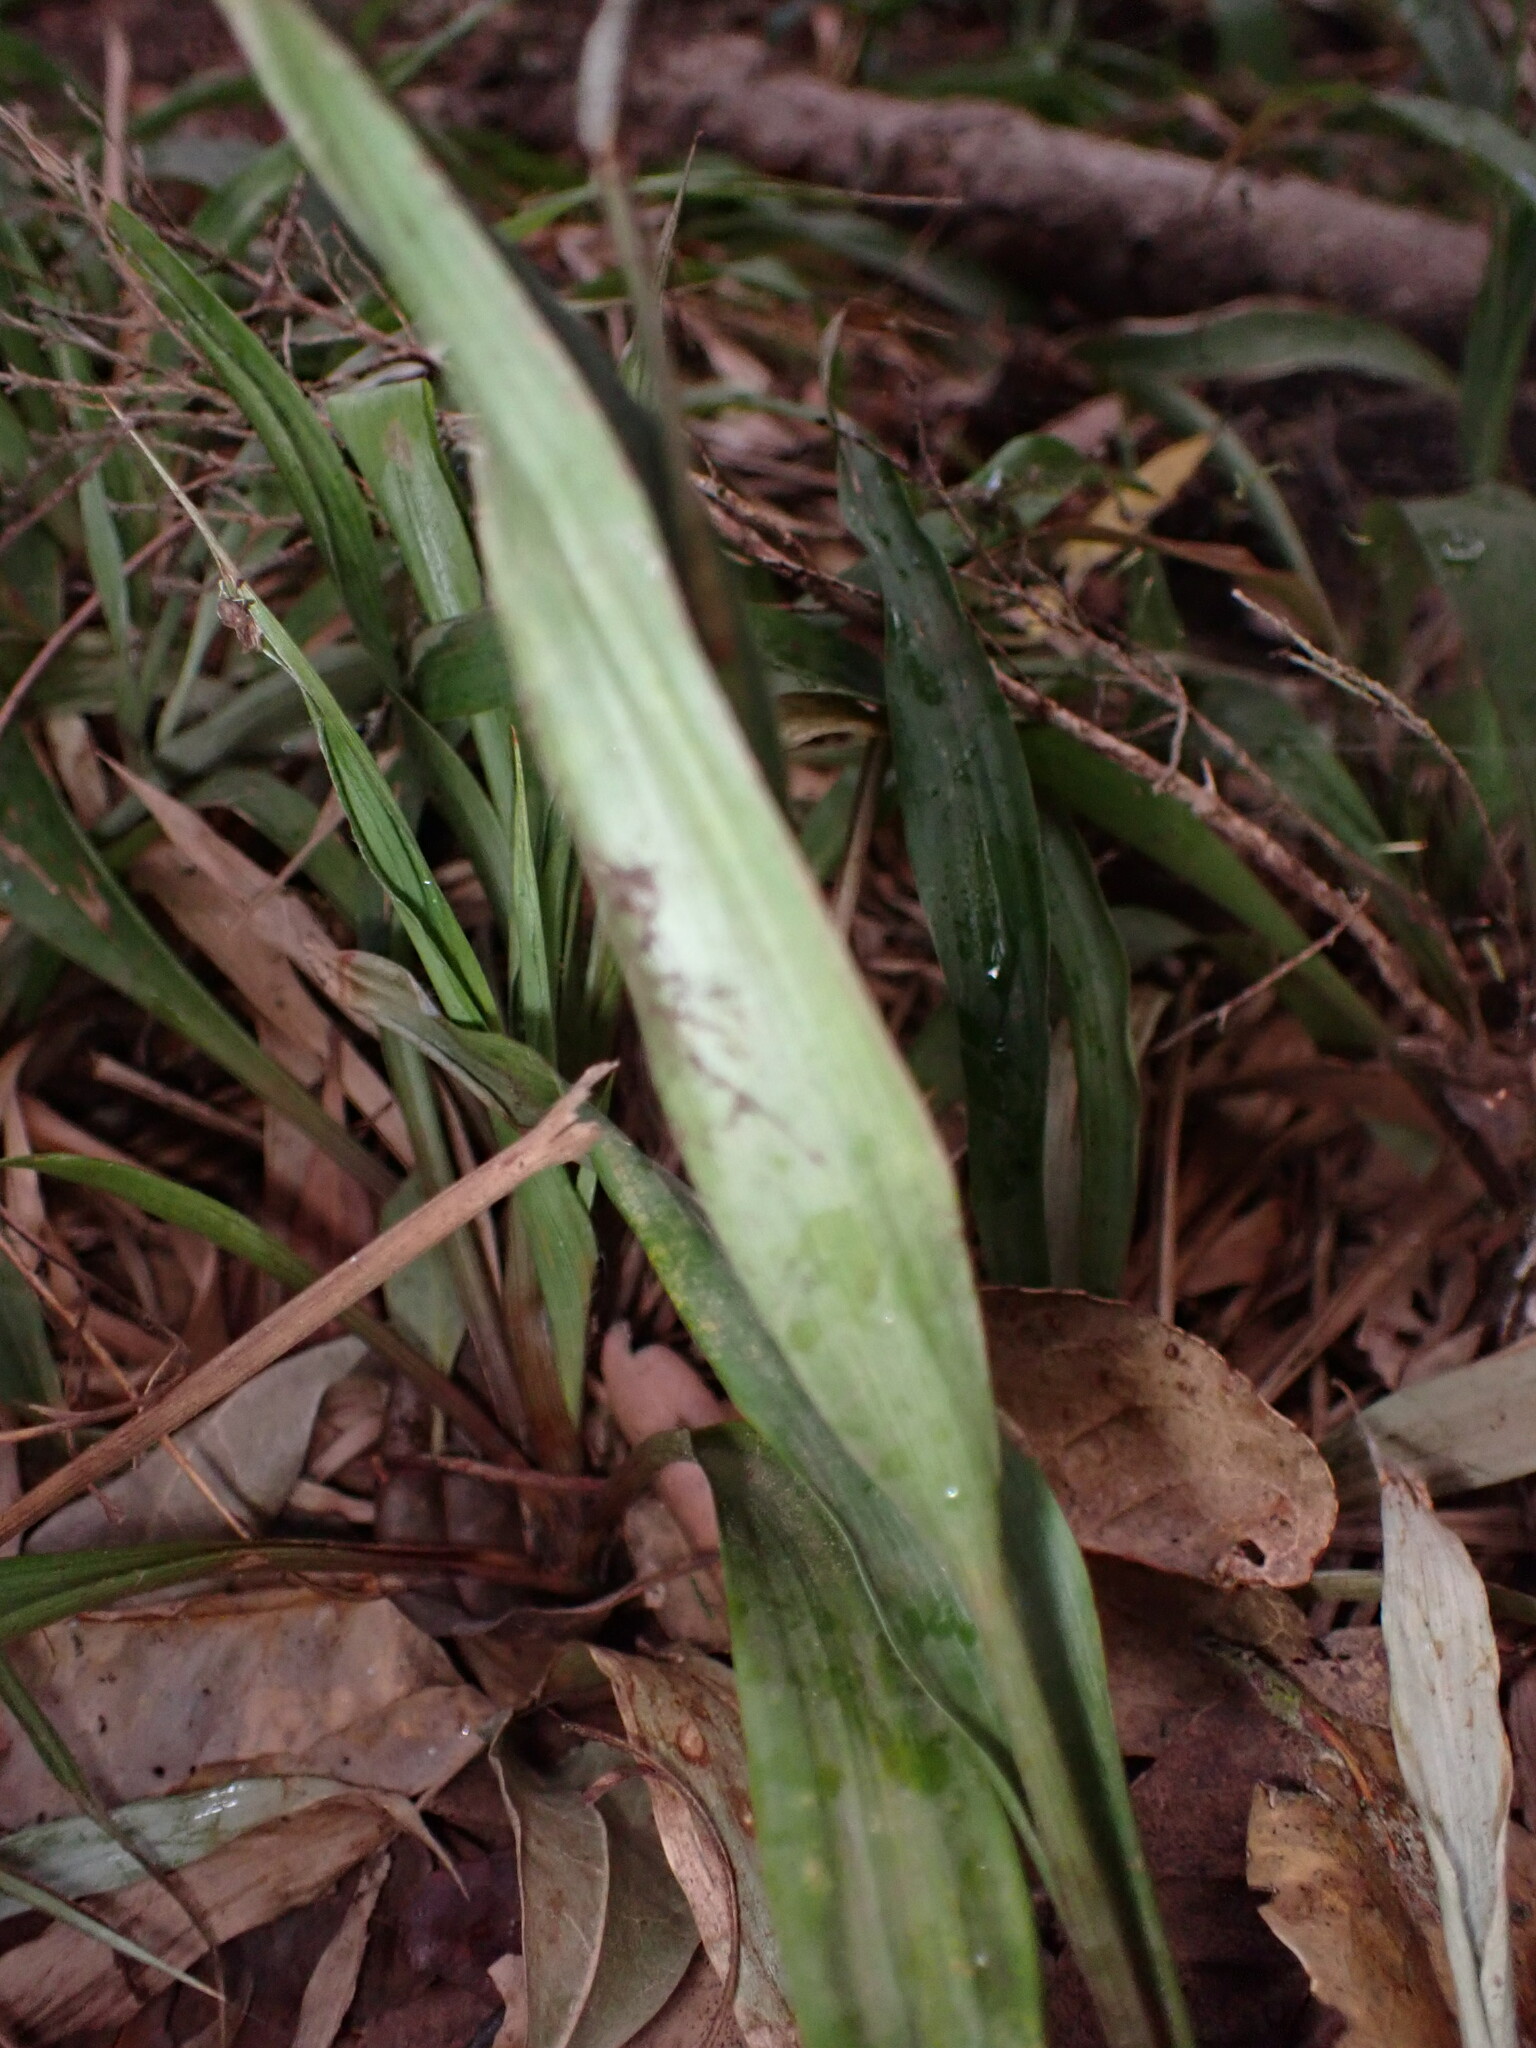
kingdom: Plantae
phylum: Tracheophyta
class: Liliopsida
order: Poales
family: Juncaceae
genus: Luzula
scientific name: Luzula canariensis
